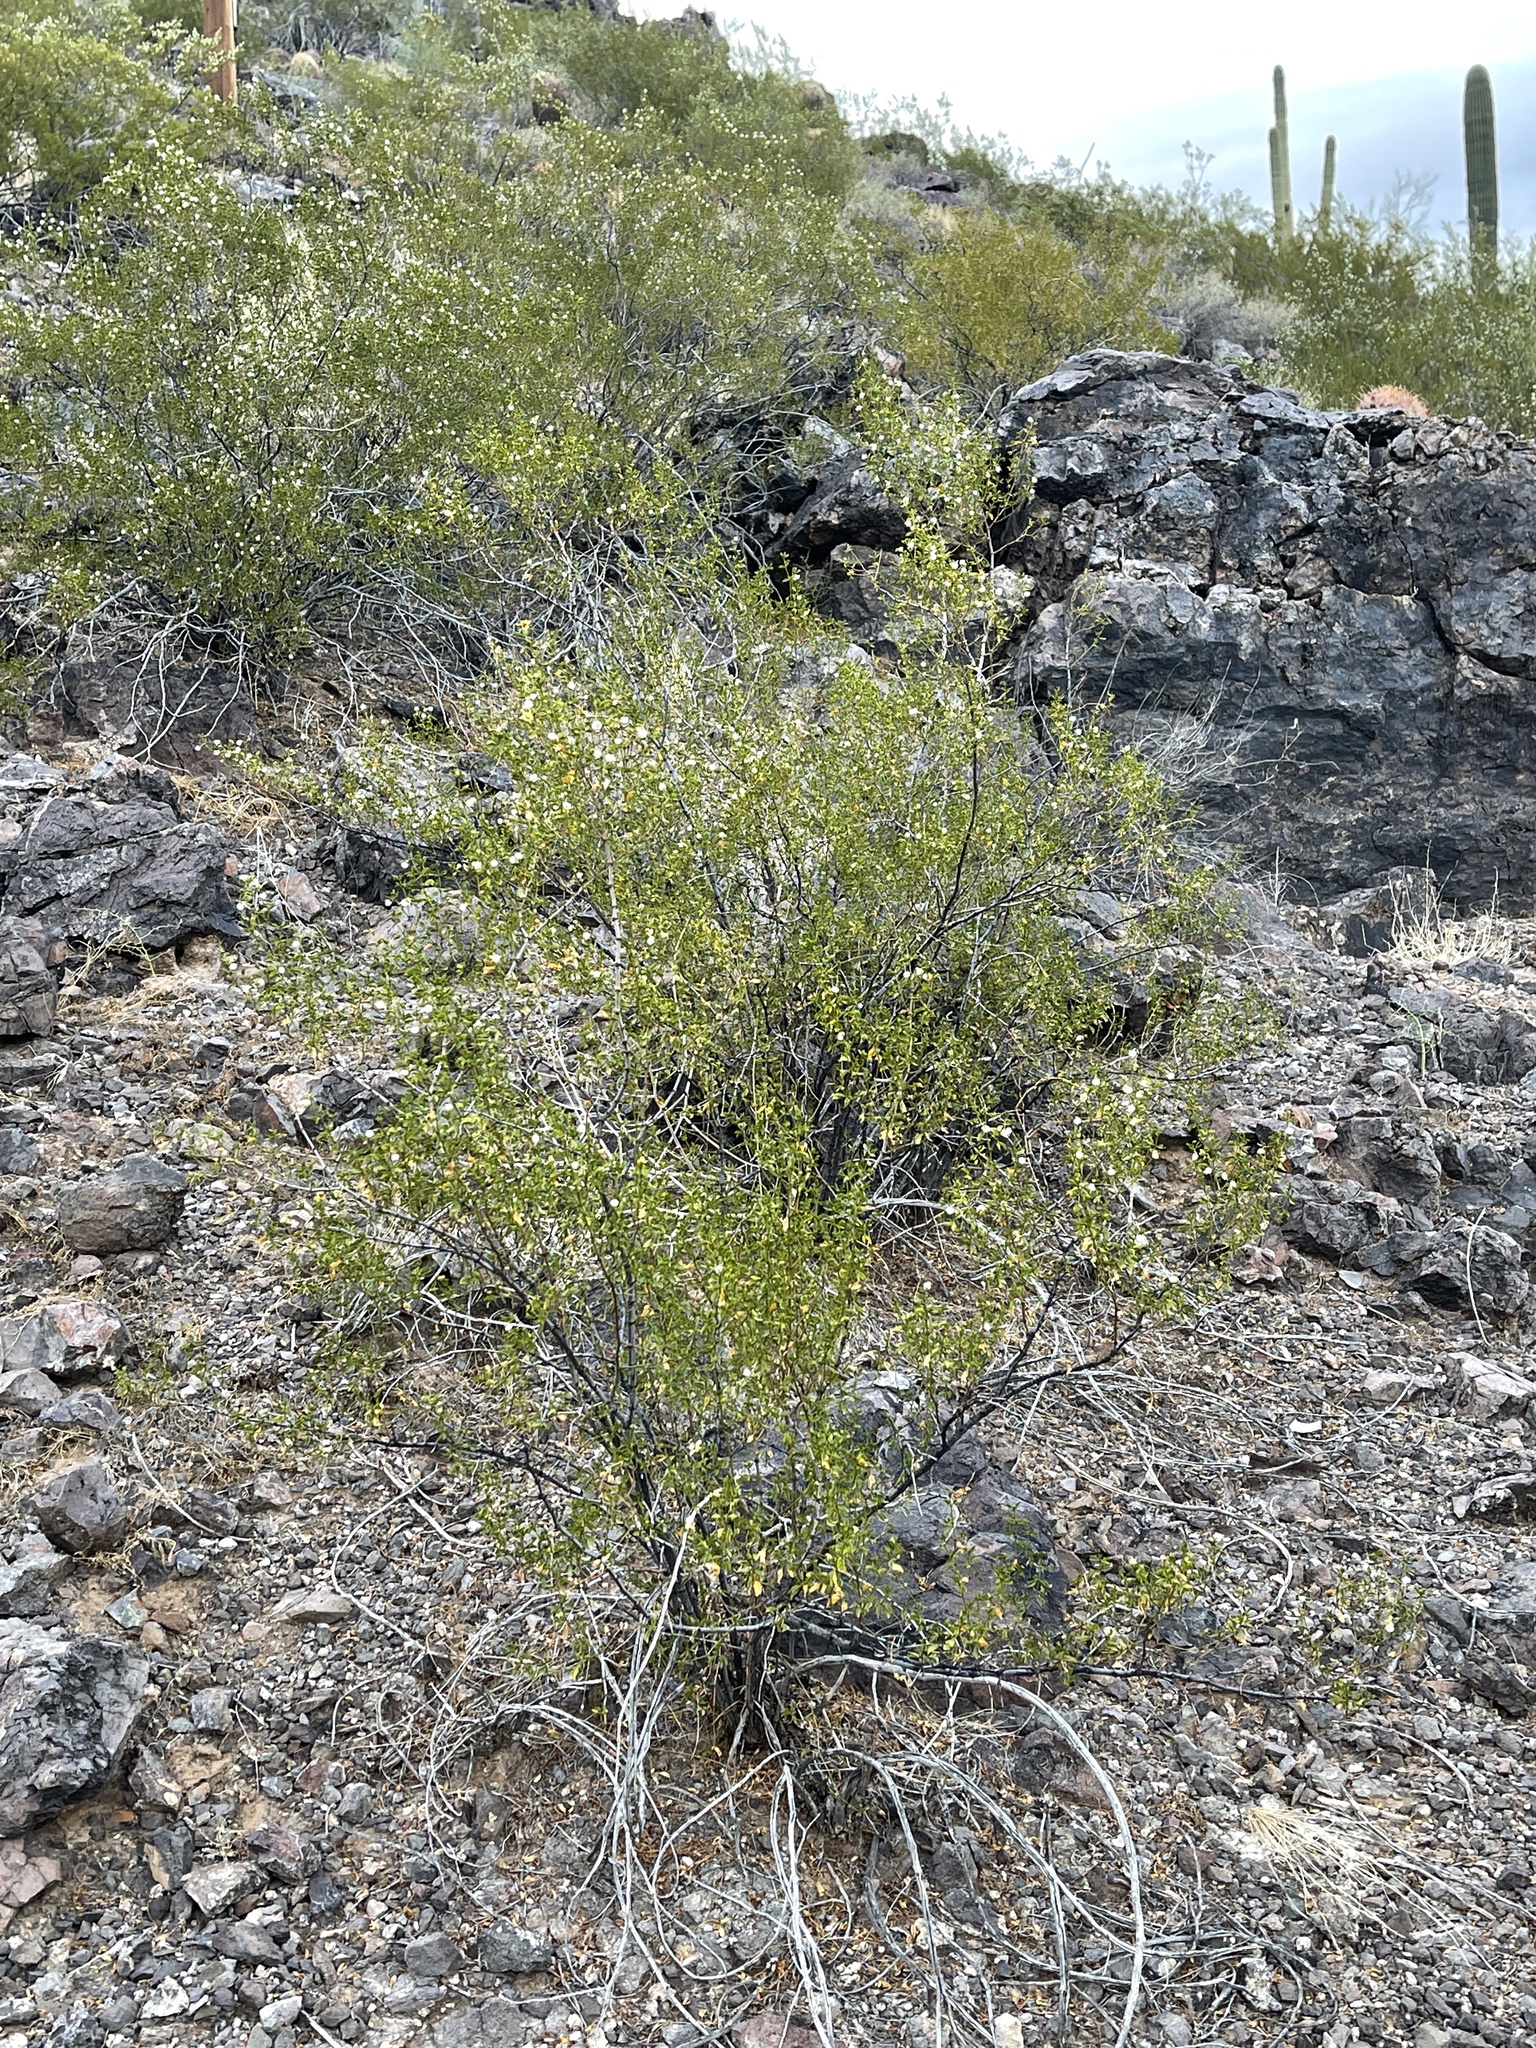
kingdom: Plantae
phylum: Tracheophyta
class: Magnoliopsida
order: Zygophyllales
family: Zygophyllaceae
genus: Larrea
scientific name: Larrea tridentata
